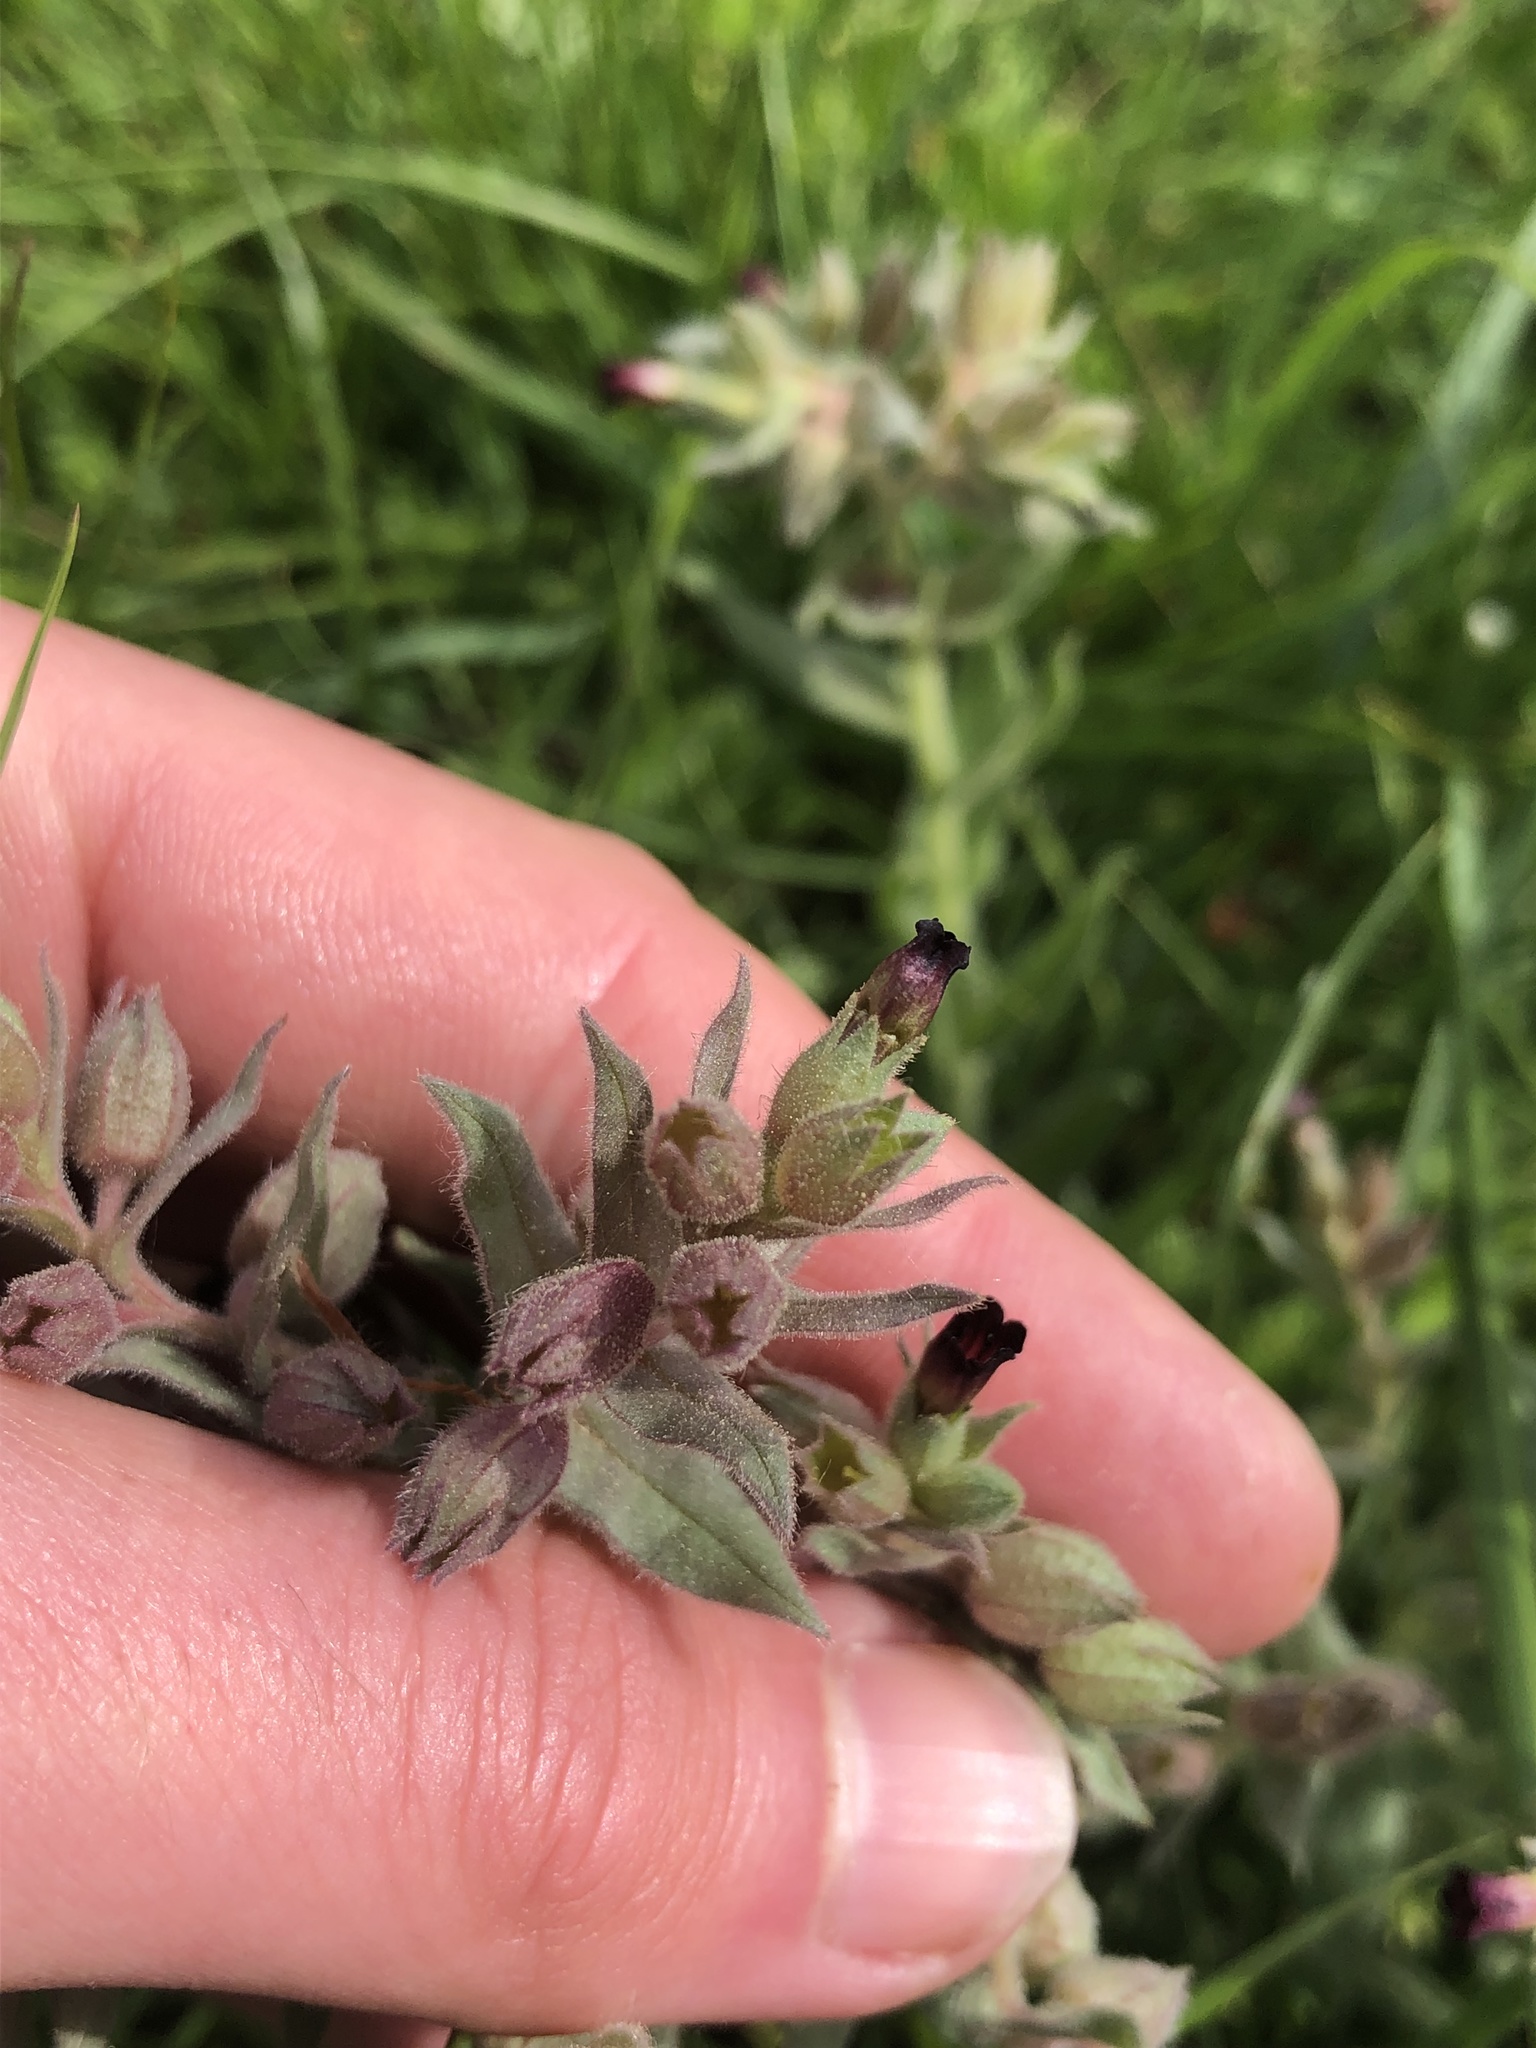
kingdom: Plantae
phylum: Tracheophyta
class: Magnoliopsida
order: Boraginales
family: Boraginaceae
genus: Nonea
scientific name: Nonea pulla
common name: Brown nonea
